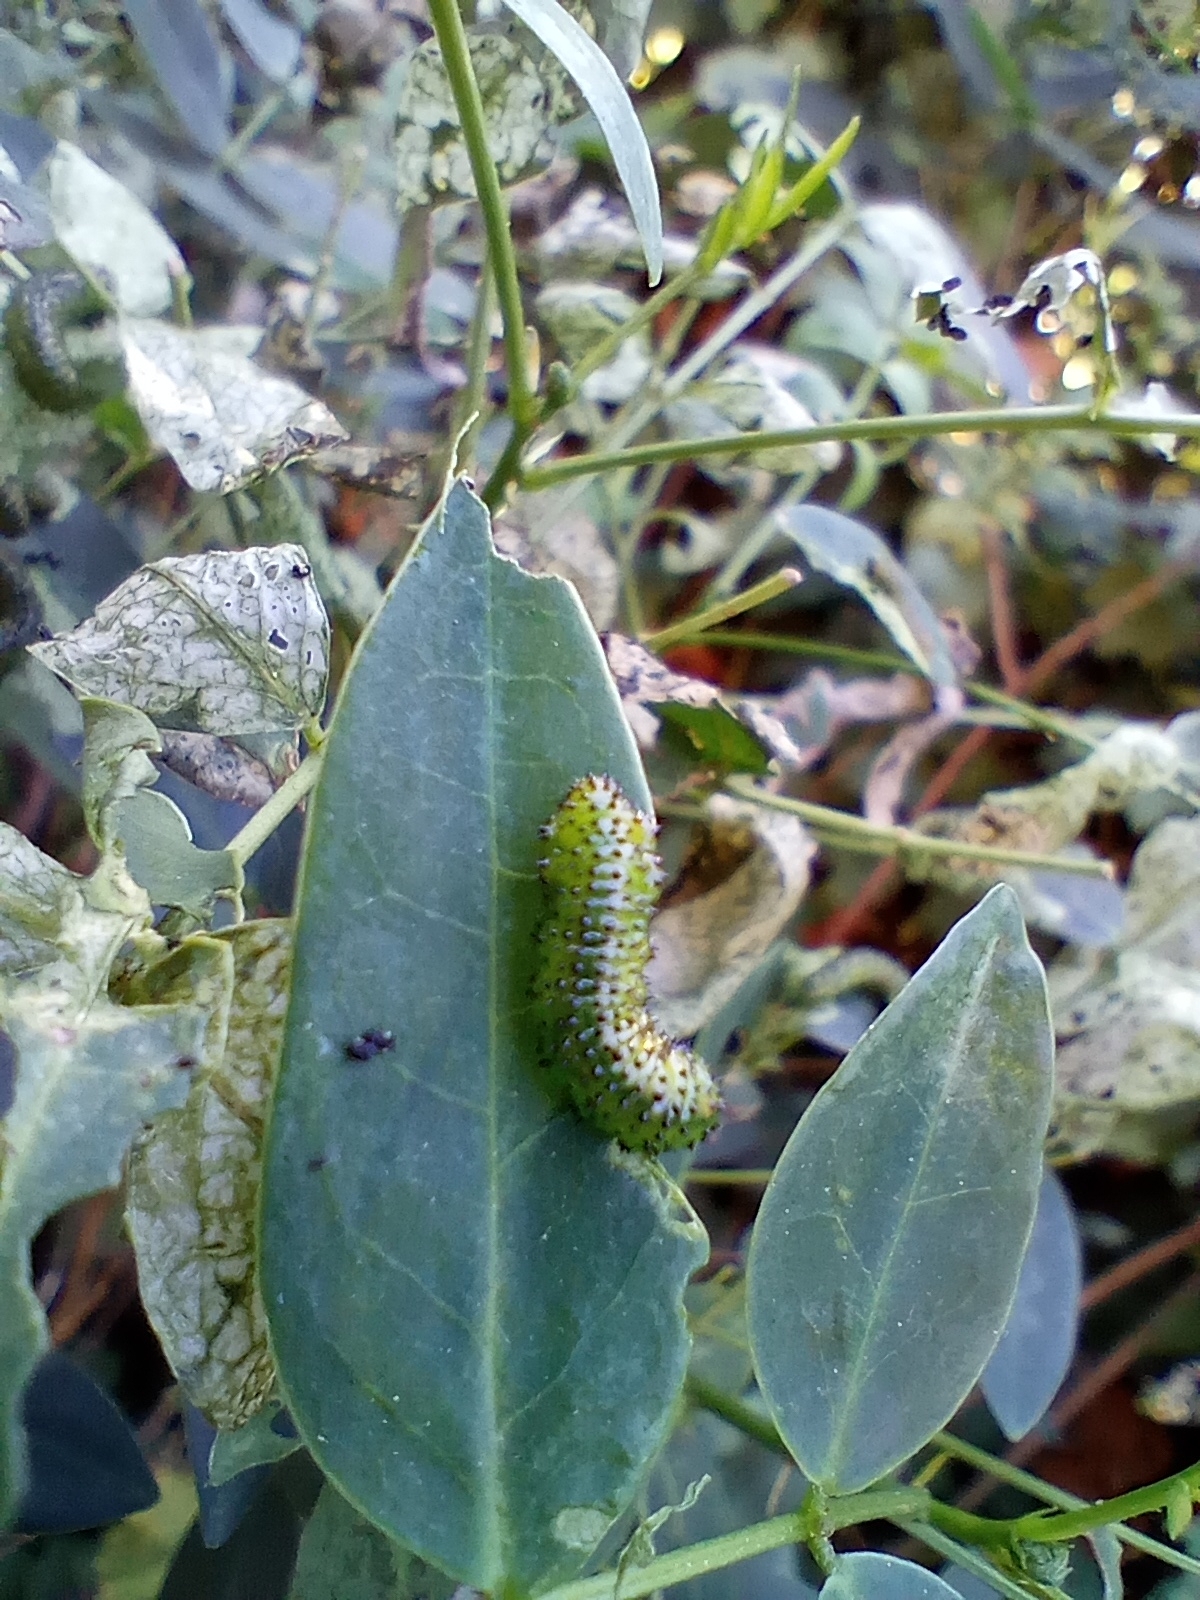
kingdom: Animalia
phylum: Arthropoda
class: Insecta
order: Hymenoptera
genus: Adurgoa
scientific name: Adurgoa
